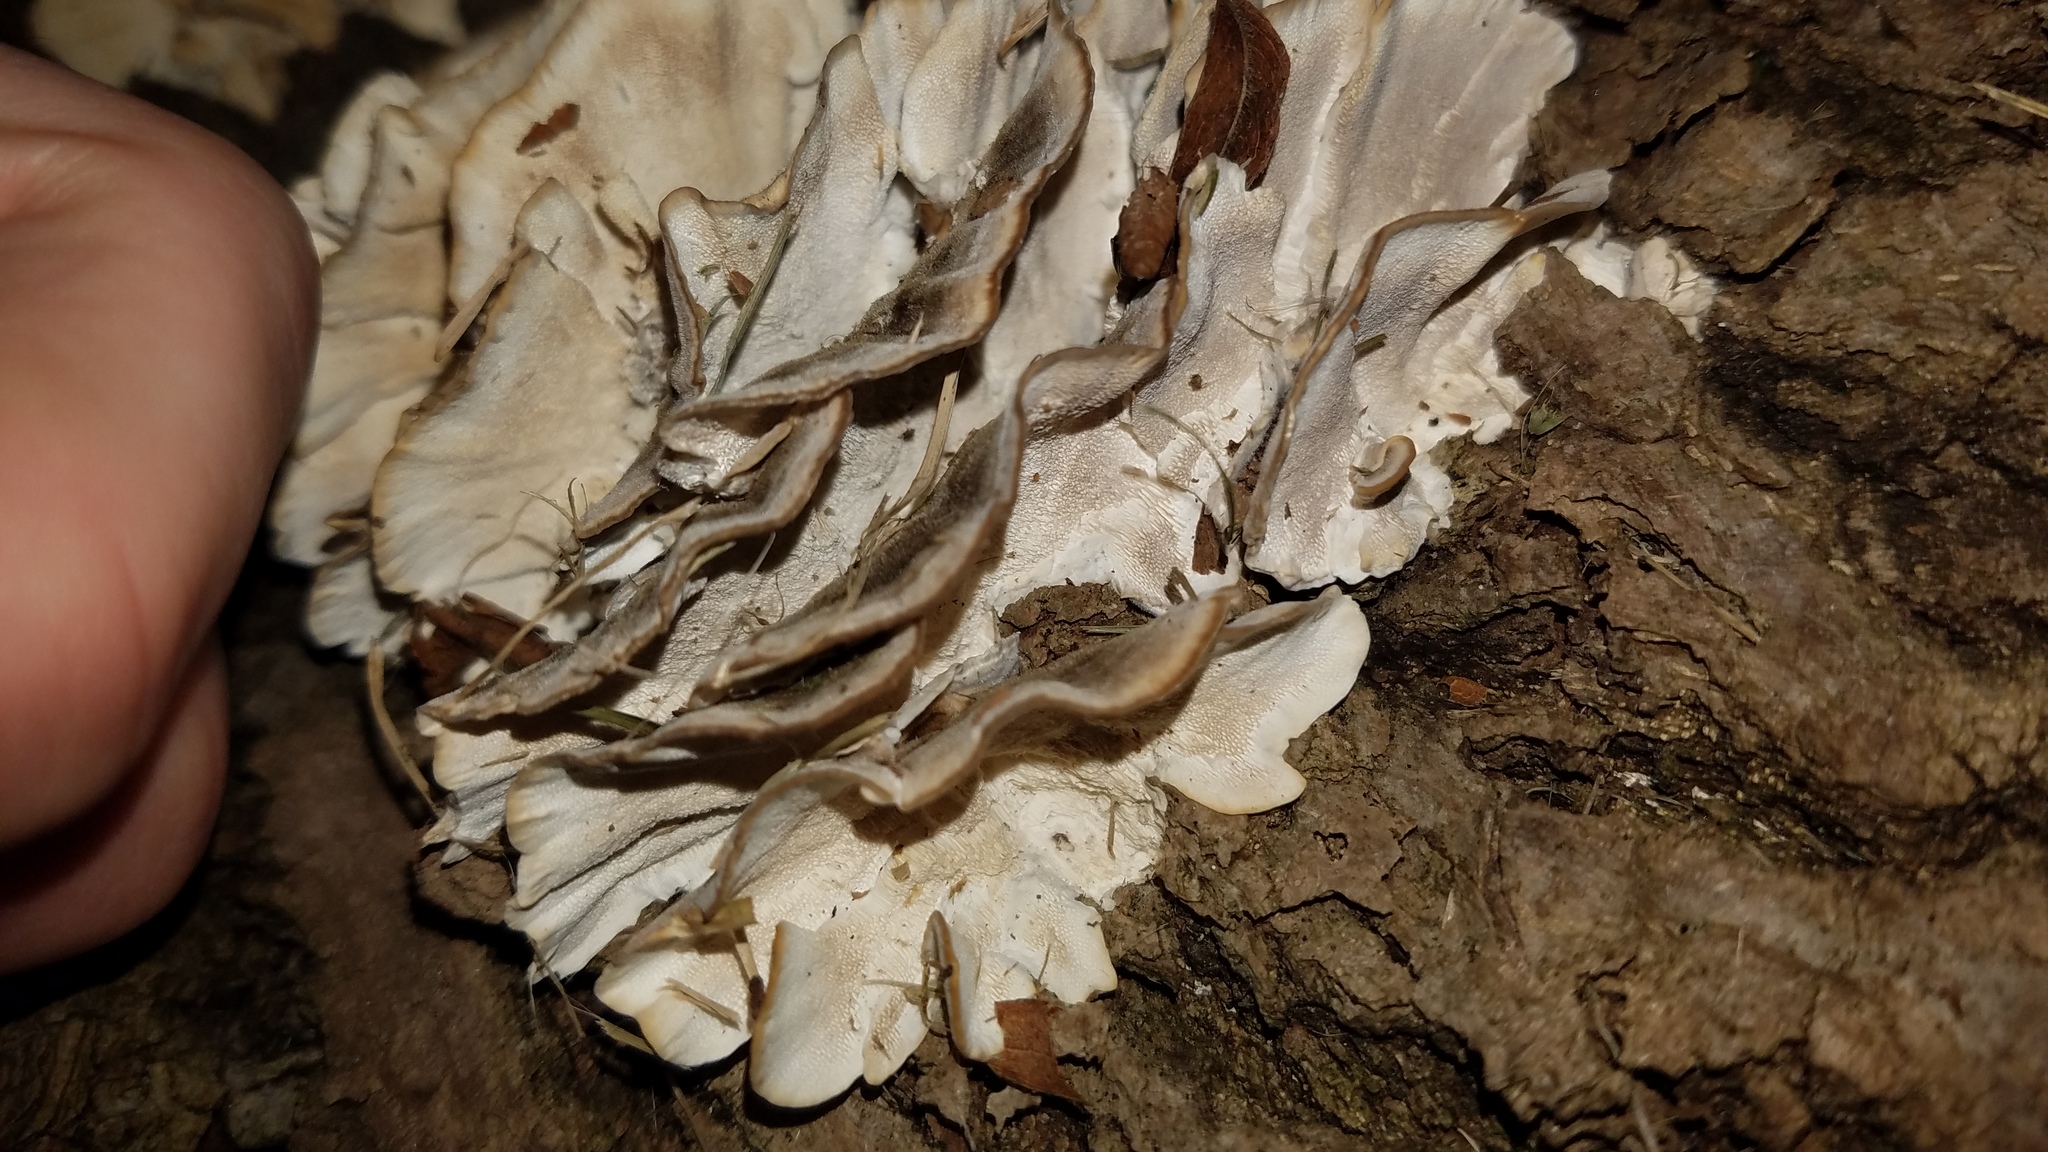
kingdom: Fungi
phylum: Basidiomycota
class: Agaricomycetes
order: Polyporales
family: Polyporaceae
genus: Trametes
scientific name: Trametes versicolor
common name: Turkeytail
